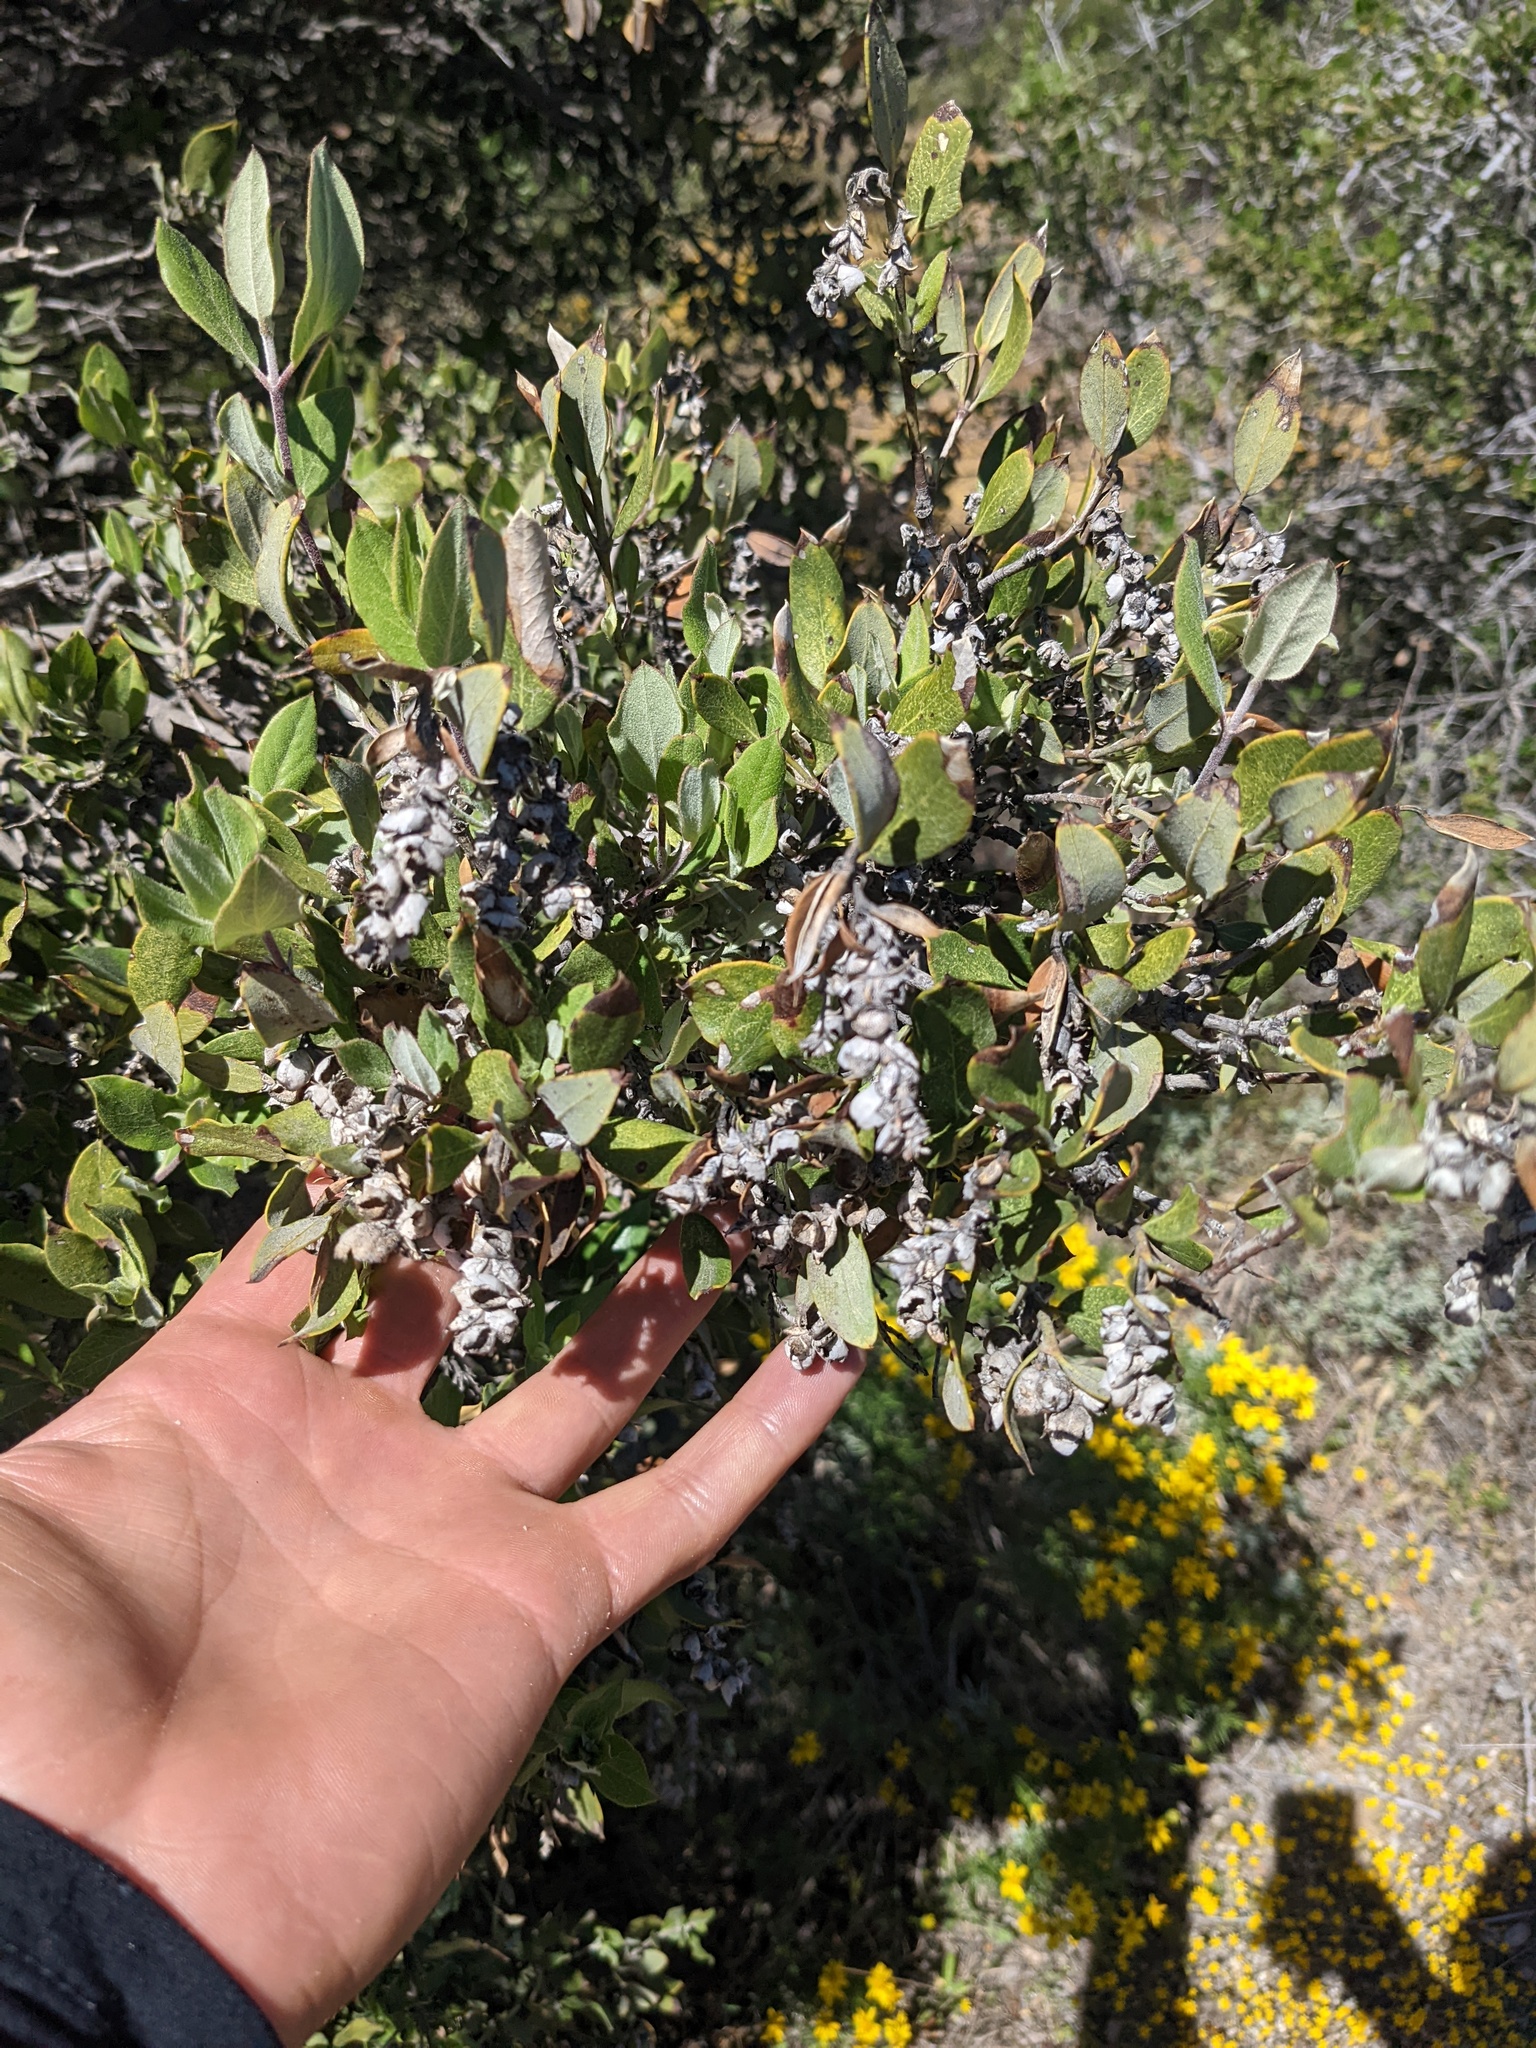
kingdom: Plantae
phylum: Tracheophyta
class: Magnoliopsida
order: Garryales
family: Garryaceae
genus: Garrya
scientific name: Garrya veatchii
